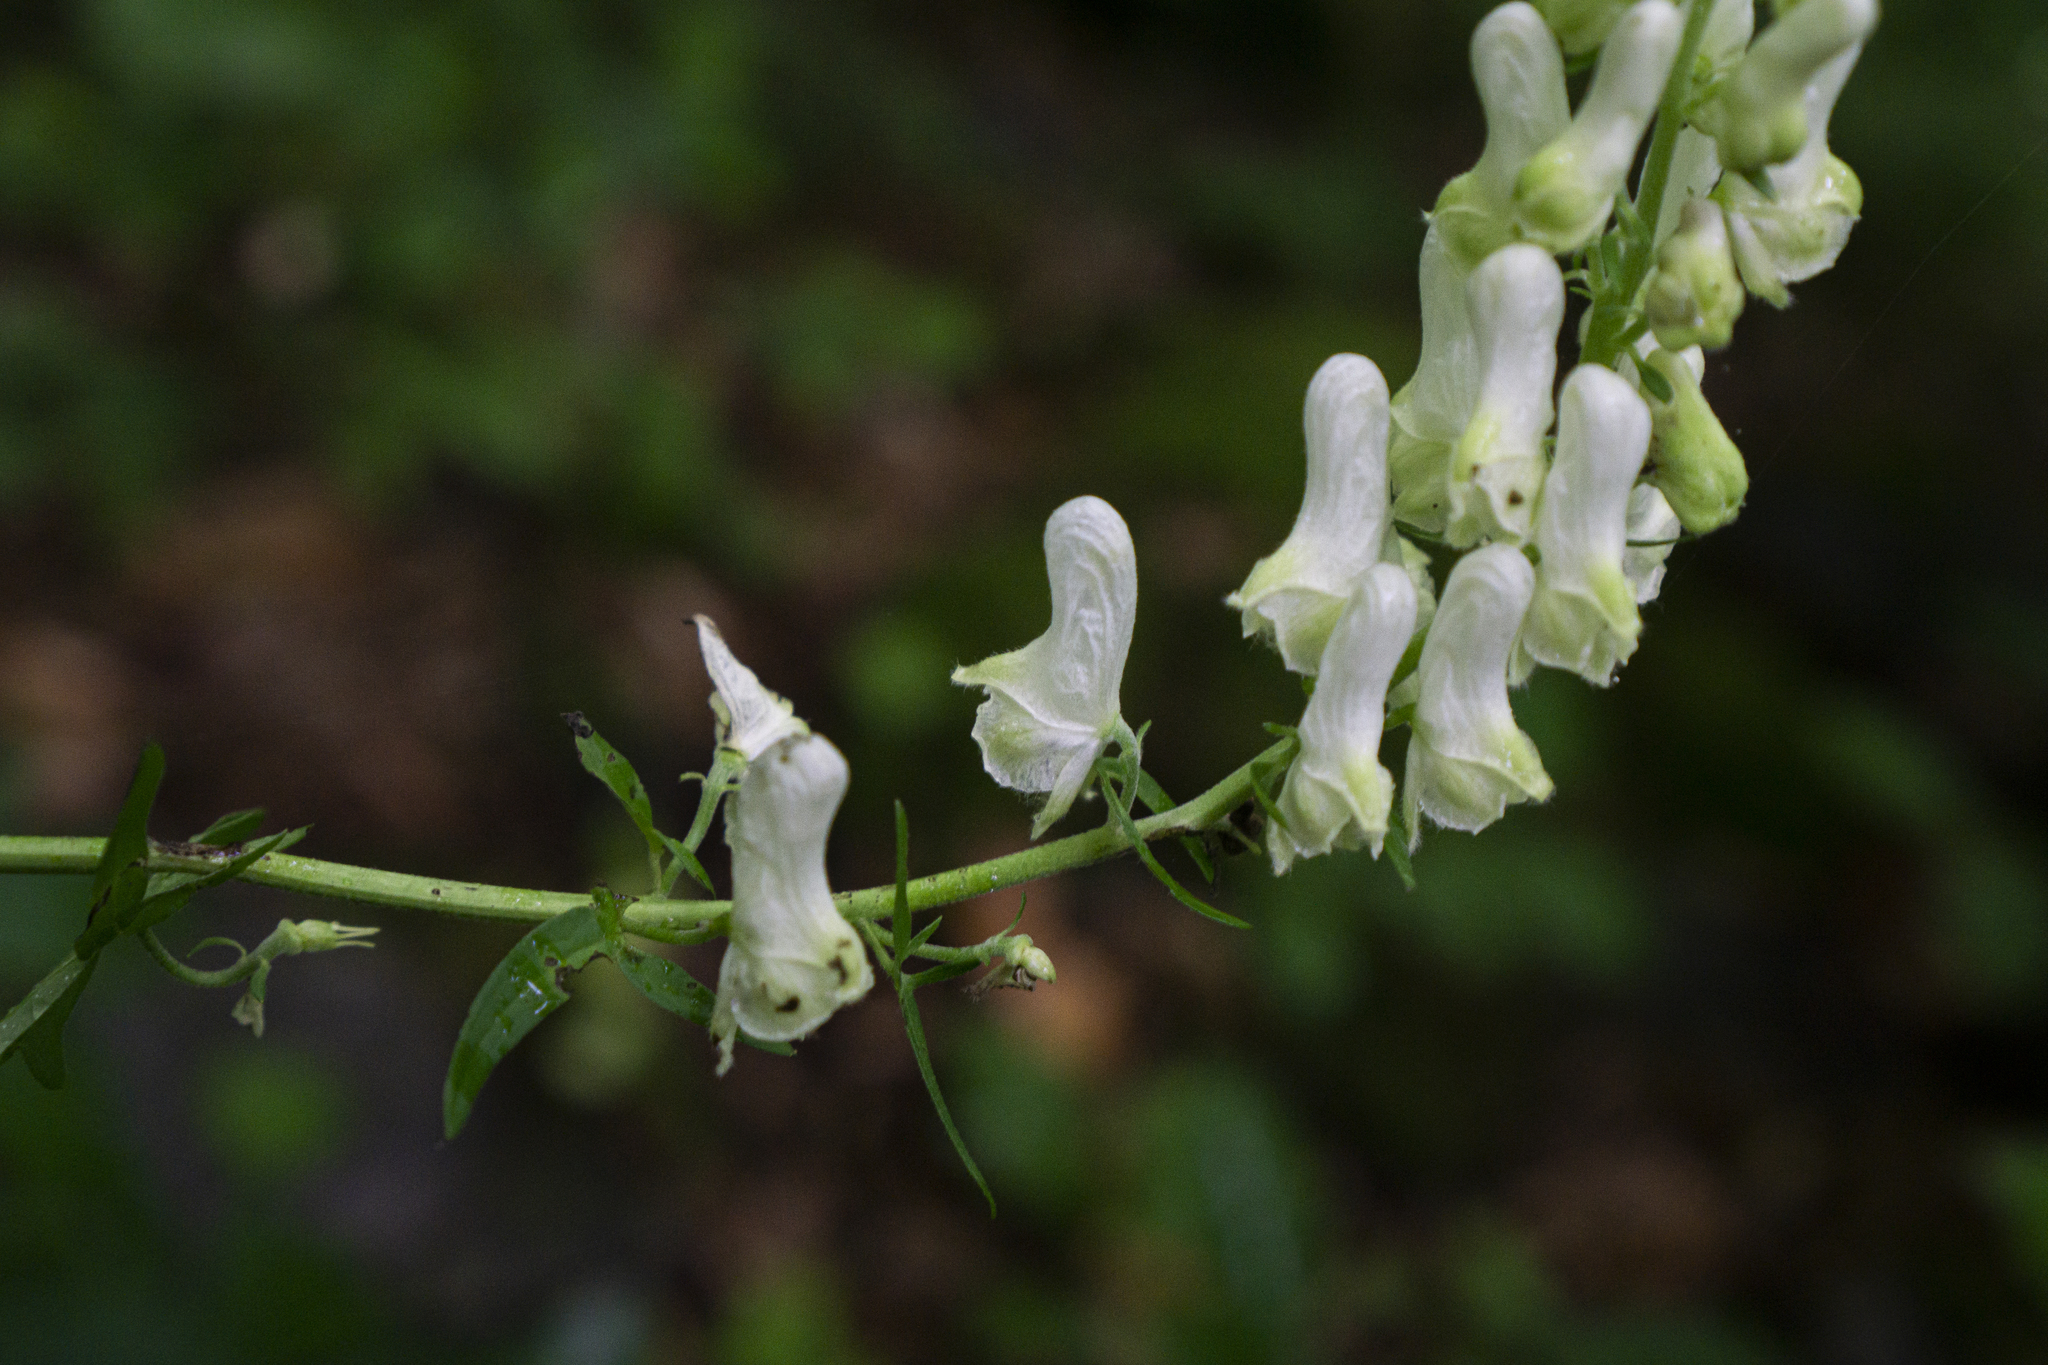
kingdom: Plantae
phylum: Tracheophyta
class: Magnoliopsida
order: Ranunculales
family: Ranunculaceae
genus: Aconitum
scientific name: Aconitum lasiostomum
